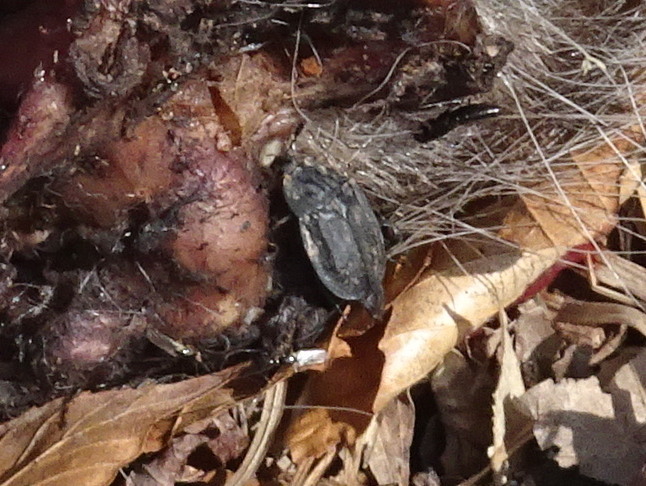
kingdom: Animalia
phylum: Arthropoda
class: Insecta
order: Coleoptera
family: Staphylinidae
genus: Oiceoptoma
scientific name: Oiceoptoma inaequale
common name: Ridged carrion beetle
